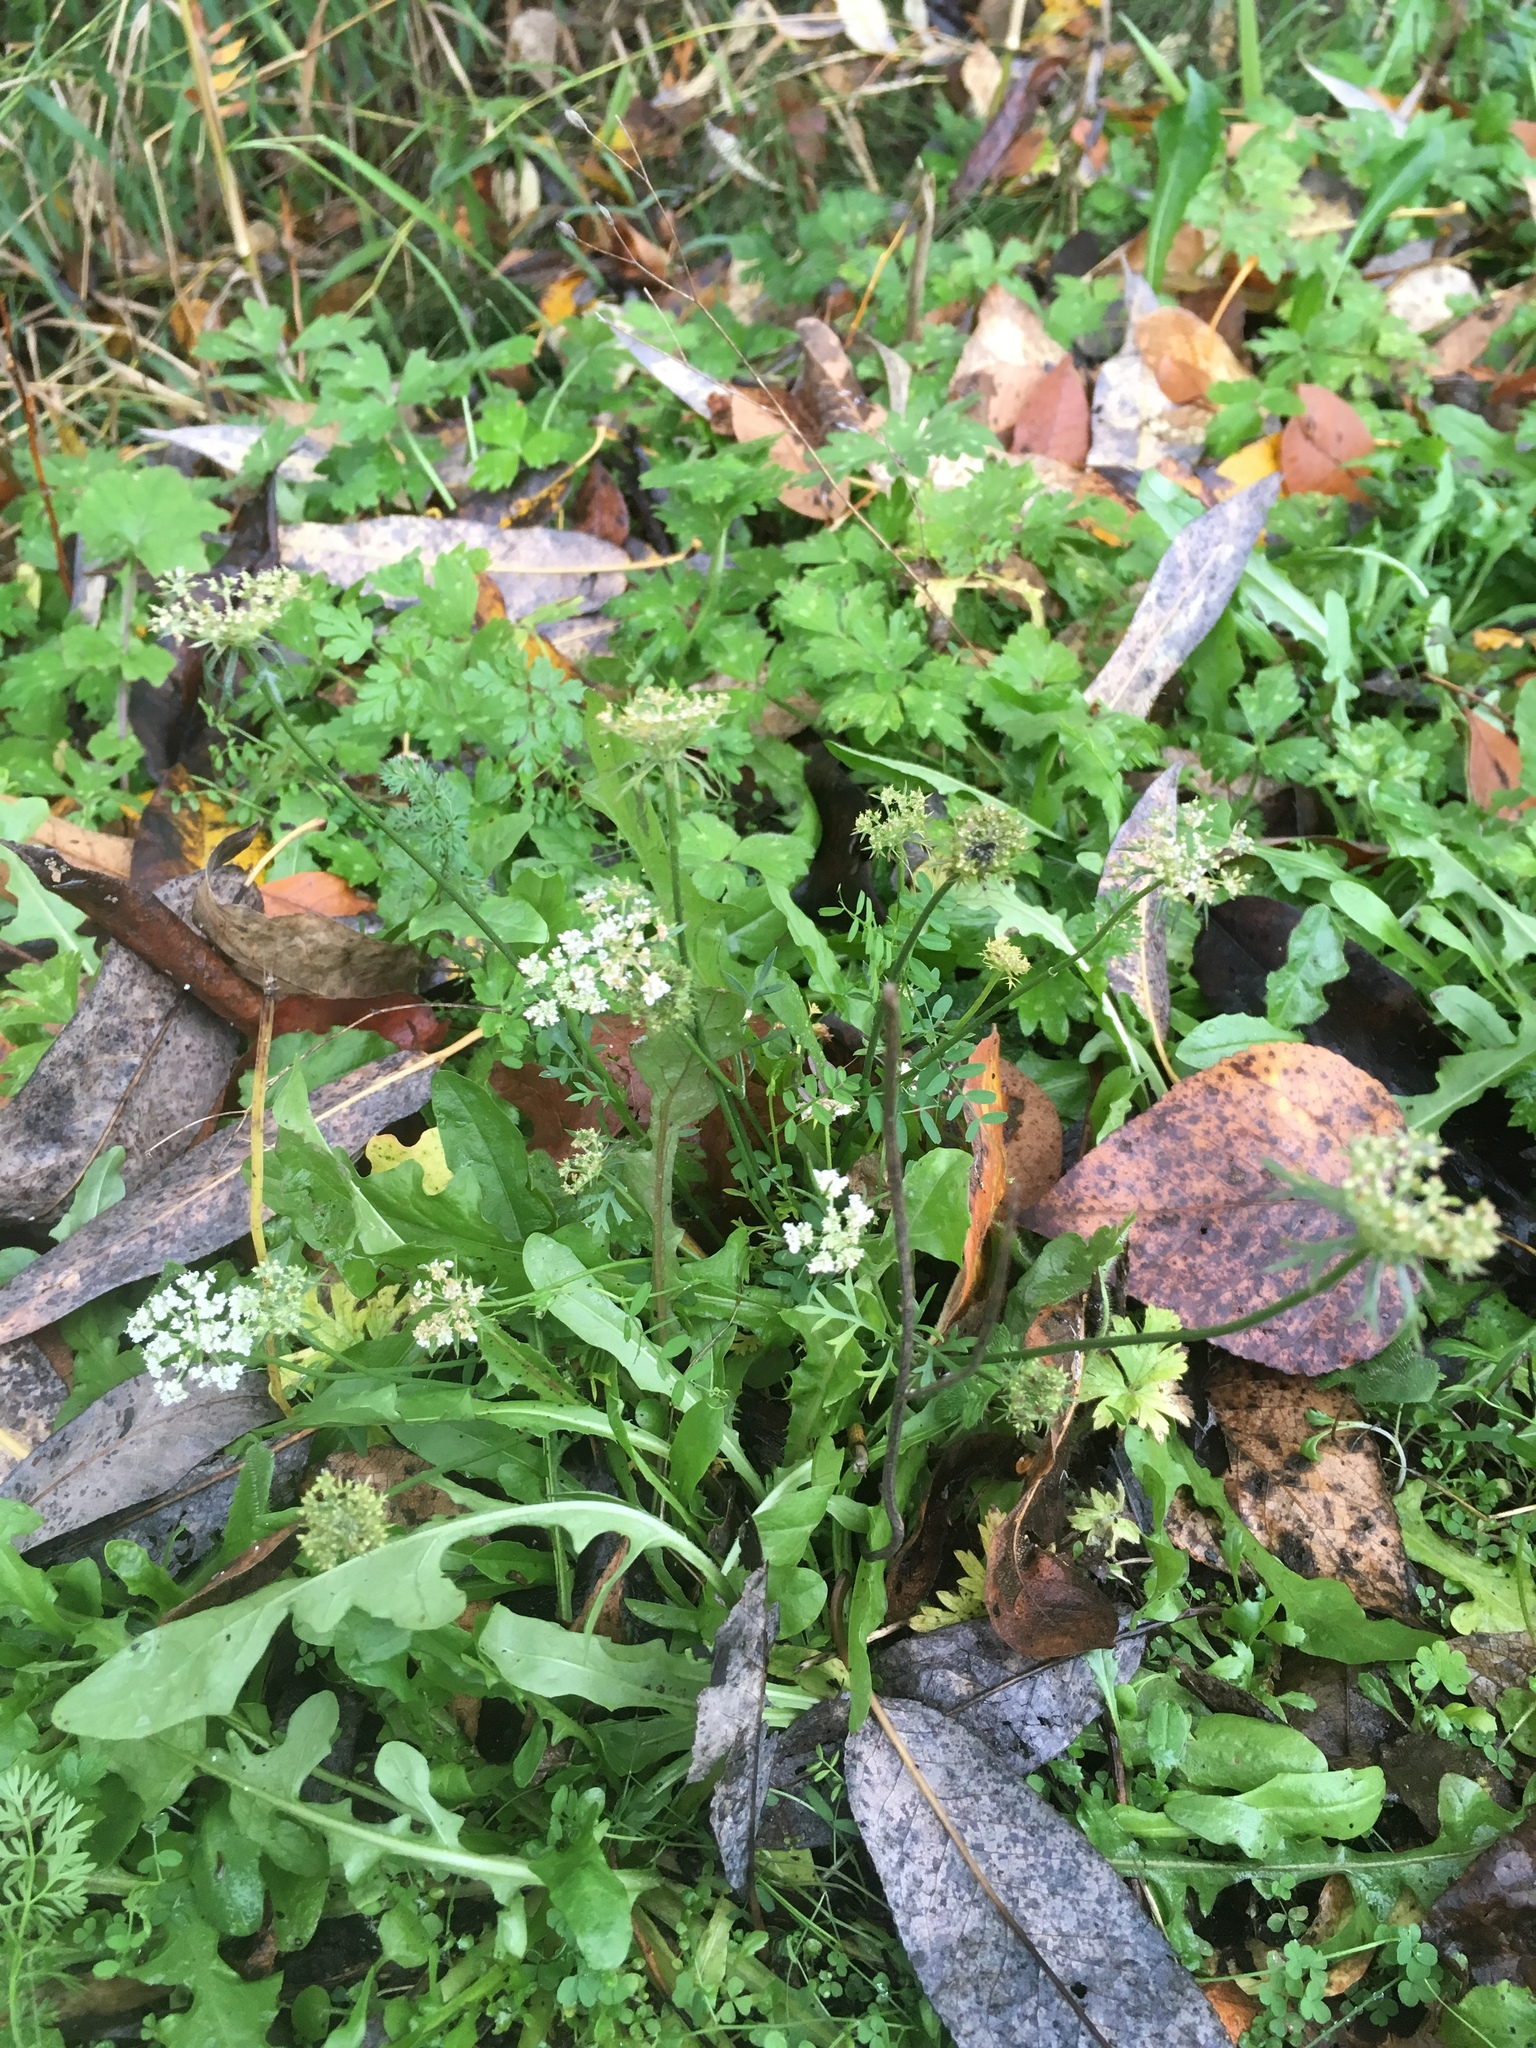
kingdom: Plantae
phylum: Tracheophyta
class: Magnoliopsida
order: Apiales
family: Apiaceae
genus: Daucus
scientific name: Daucus carota
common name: Wild carrot
